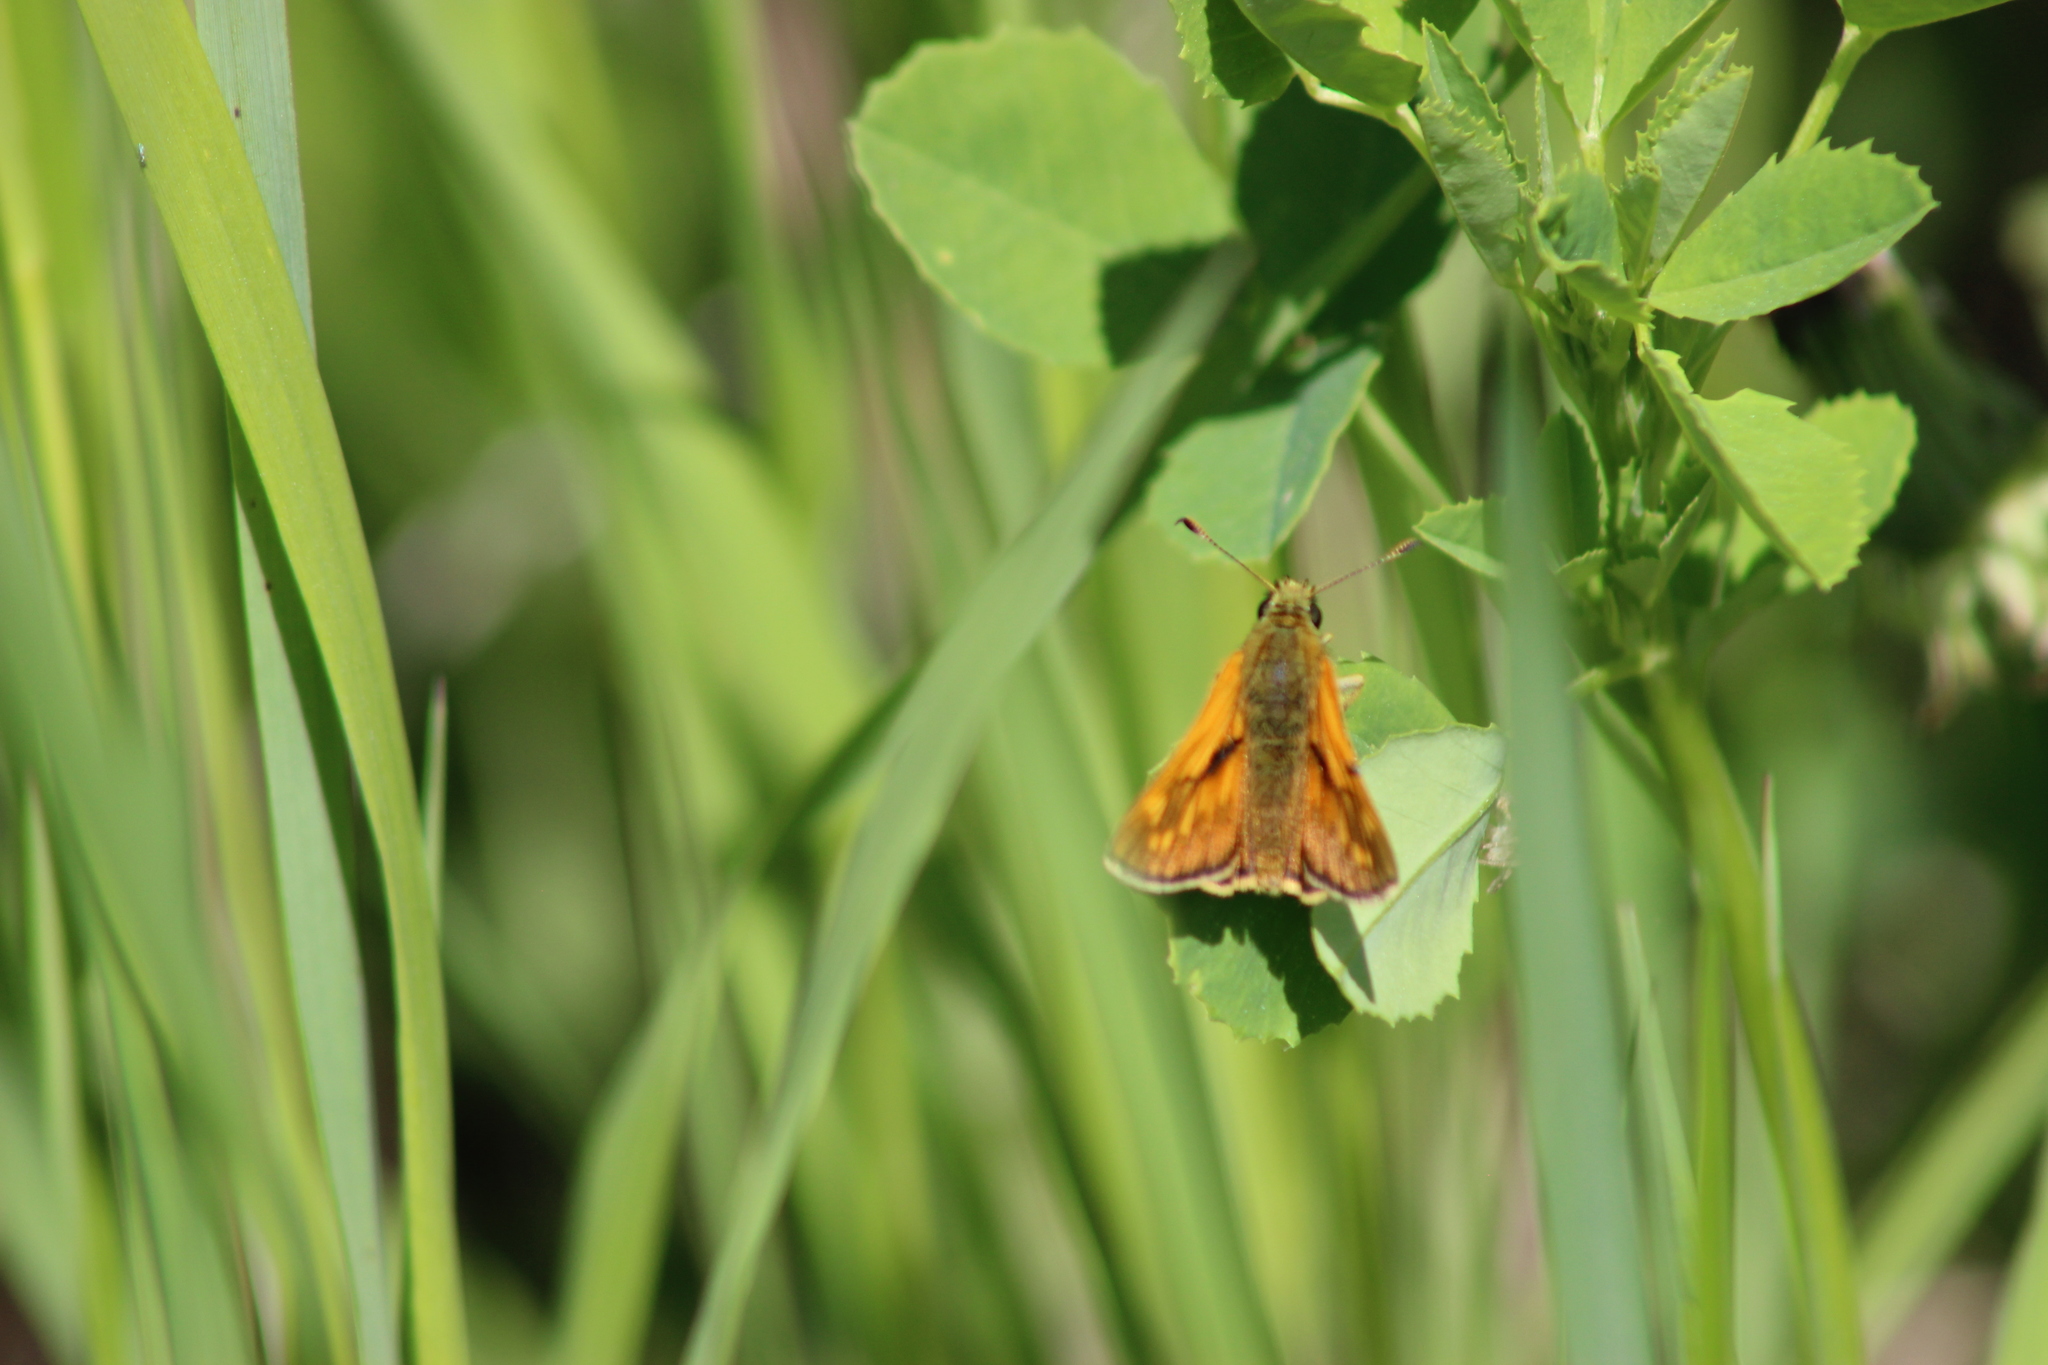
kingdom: Animalia
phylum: Arthropoda
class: Insecta
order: Lepidoptera
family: Hesperiidae
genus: Ochlodes
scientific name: Ochlodes venata
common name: Large skipper
